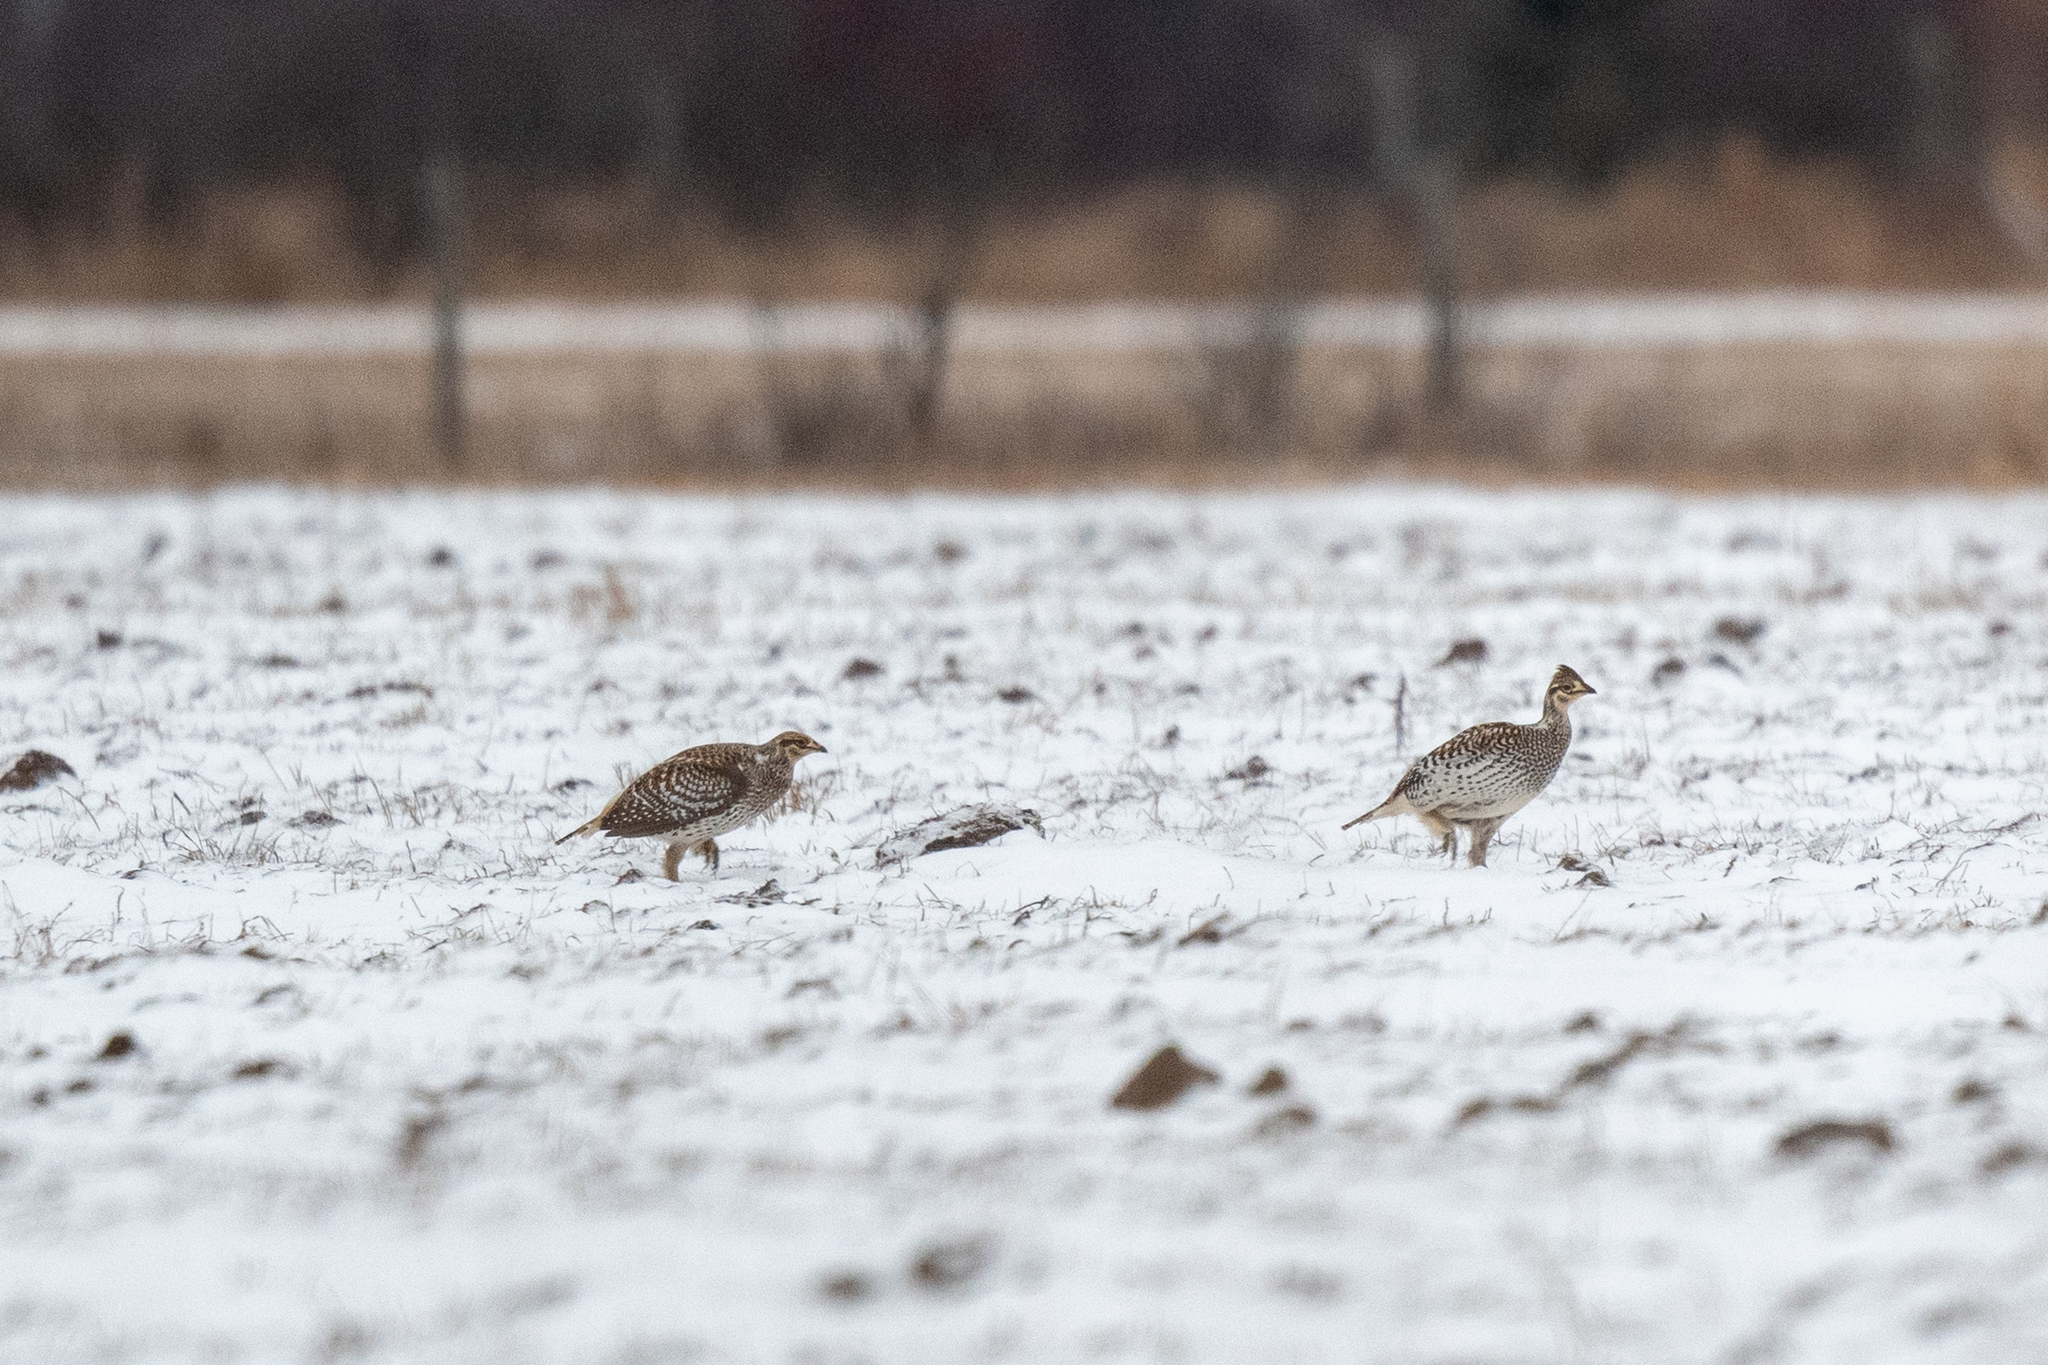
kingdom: Animalia
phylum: Chordata
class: Aves
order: Galliformes
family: Phasianidae
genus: Tympanuchus
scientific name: Tympanuchus phasianellus
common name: Sharp-tailed grouse
